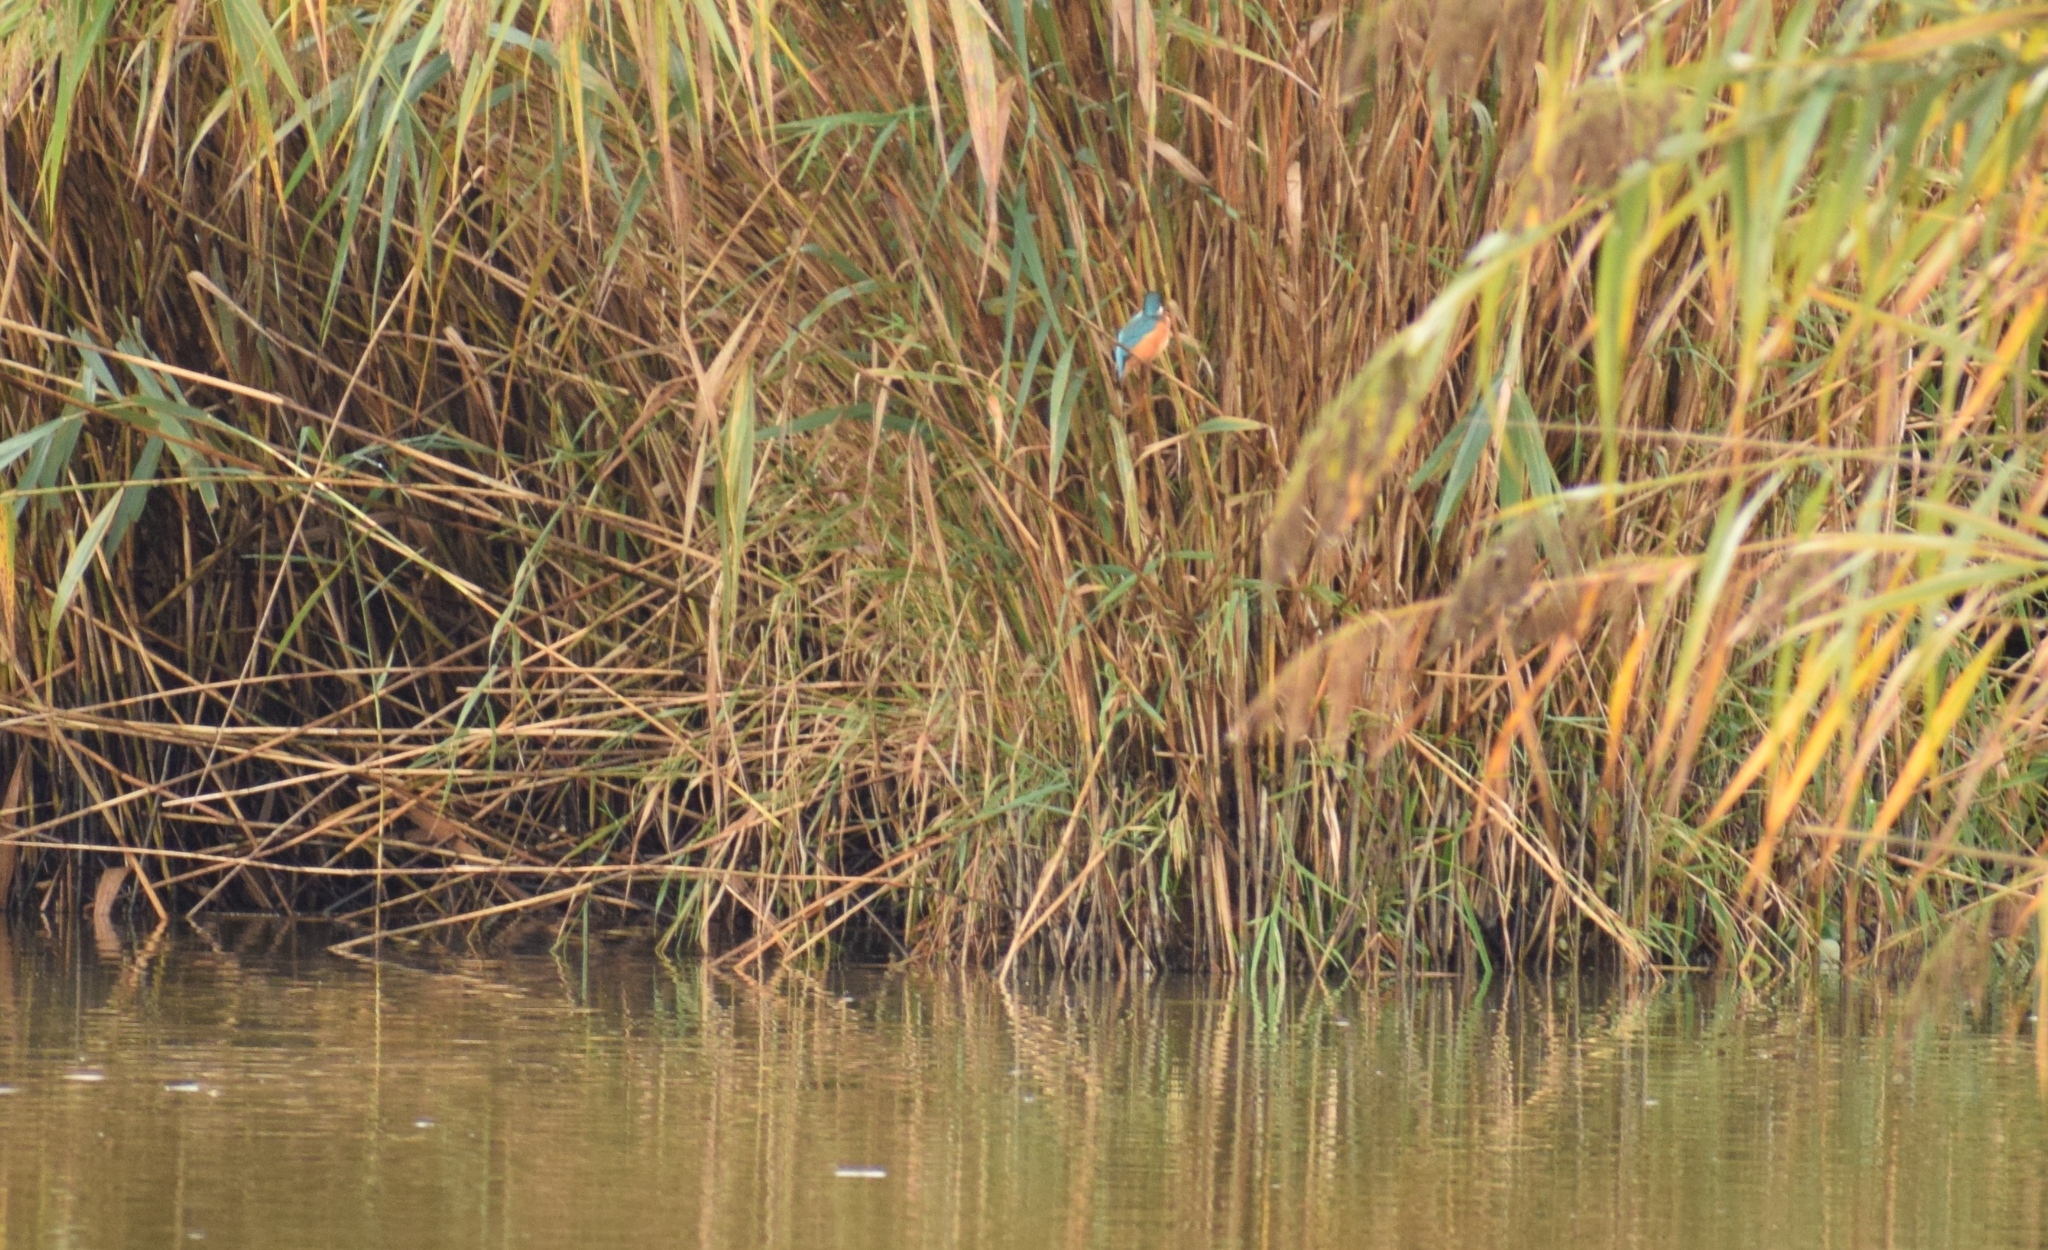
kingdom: Animalia
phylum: Chordata
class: Aves
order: Coraciiformes
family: Alcedinidae
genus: Alcedo
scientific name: Alcedo atthis
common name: Common kingfisher
